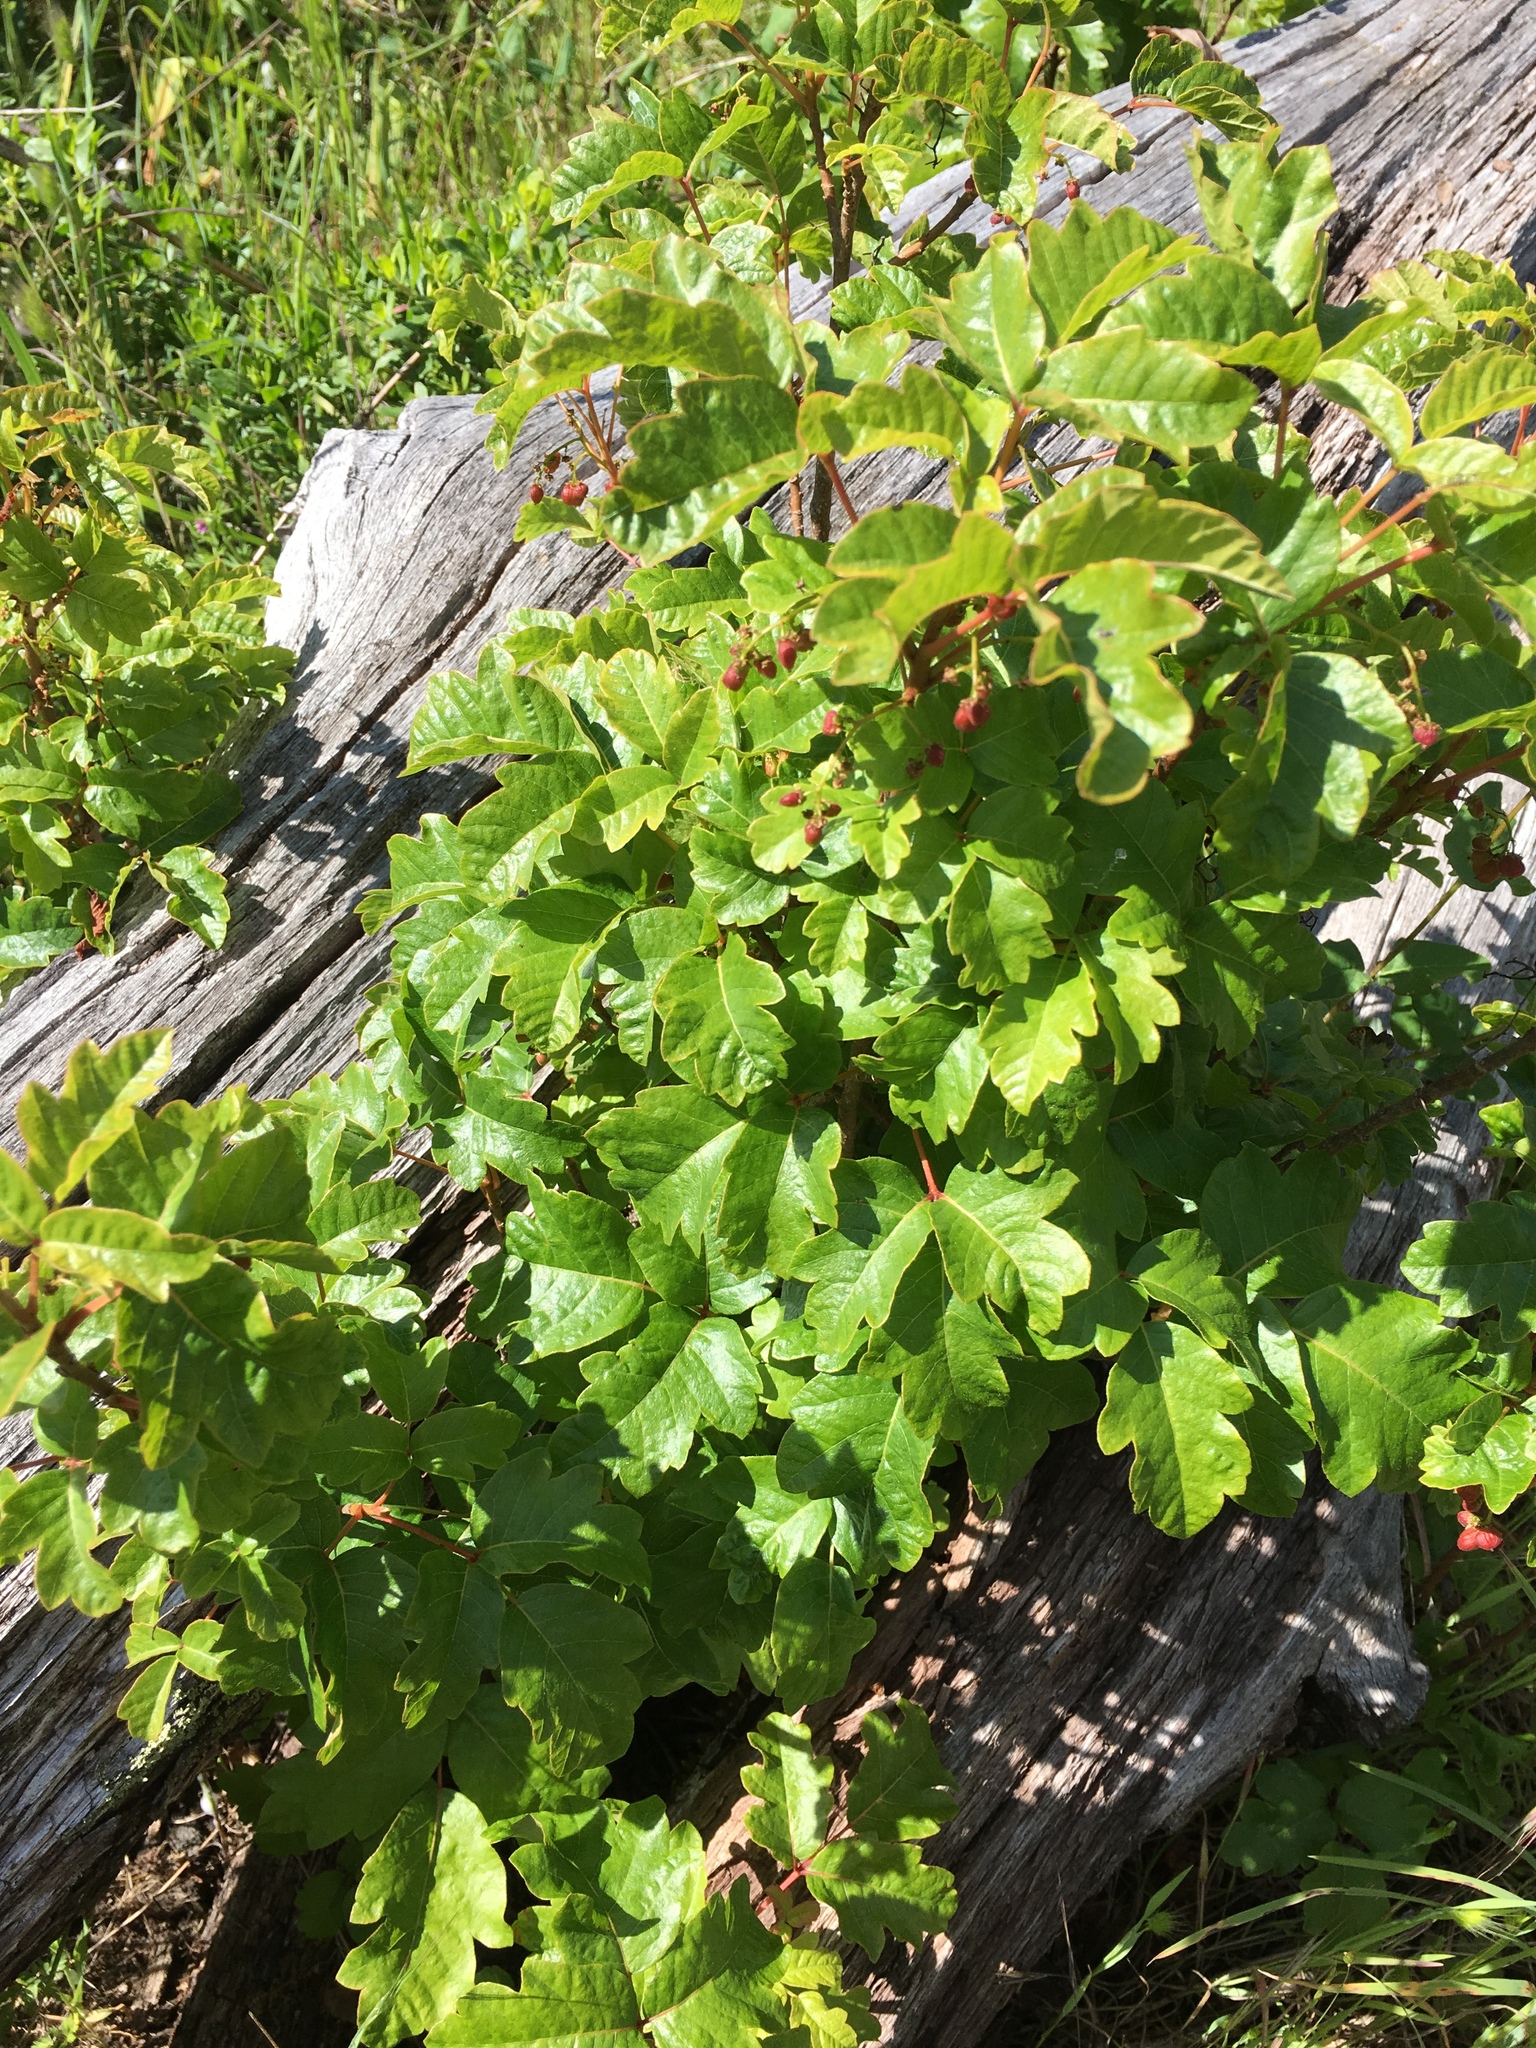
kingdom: Plantae
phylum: Tracheophyta
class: Magnoliopsida
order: Sapindales
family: Anacardiaceae
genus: Toxicodendron
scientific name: Toxicodendron diversilobum
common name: Pacific poison-oak
